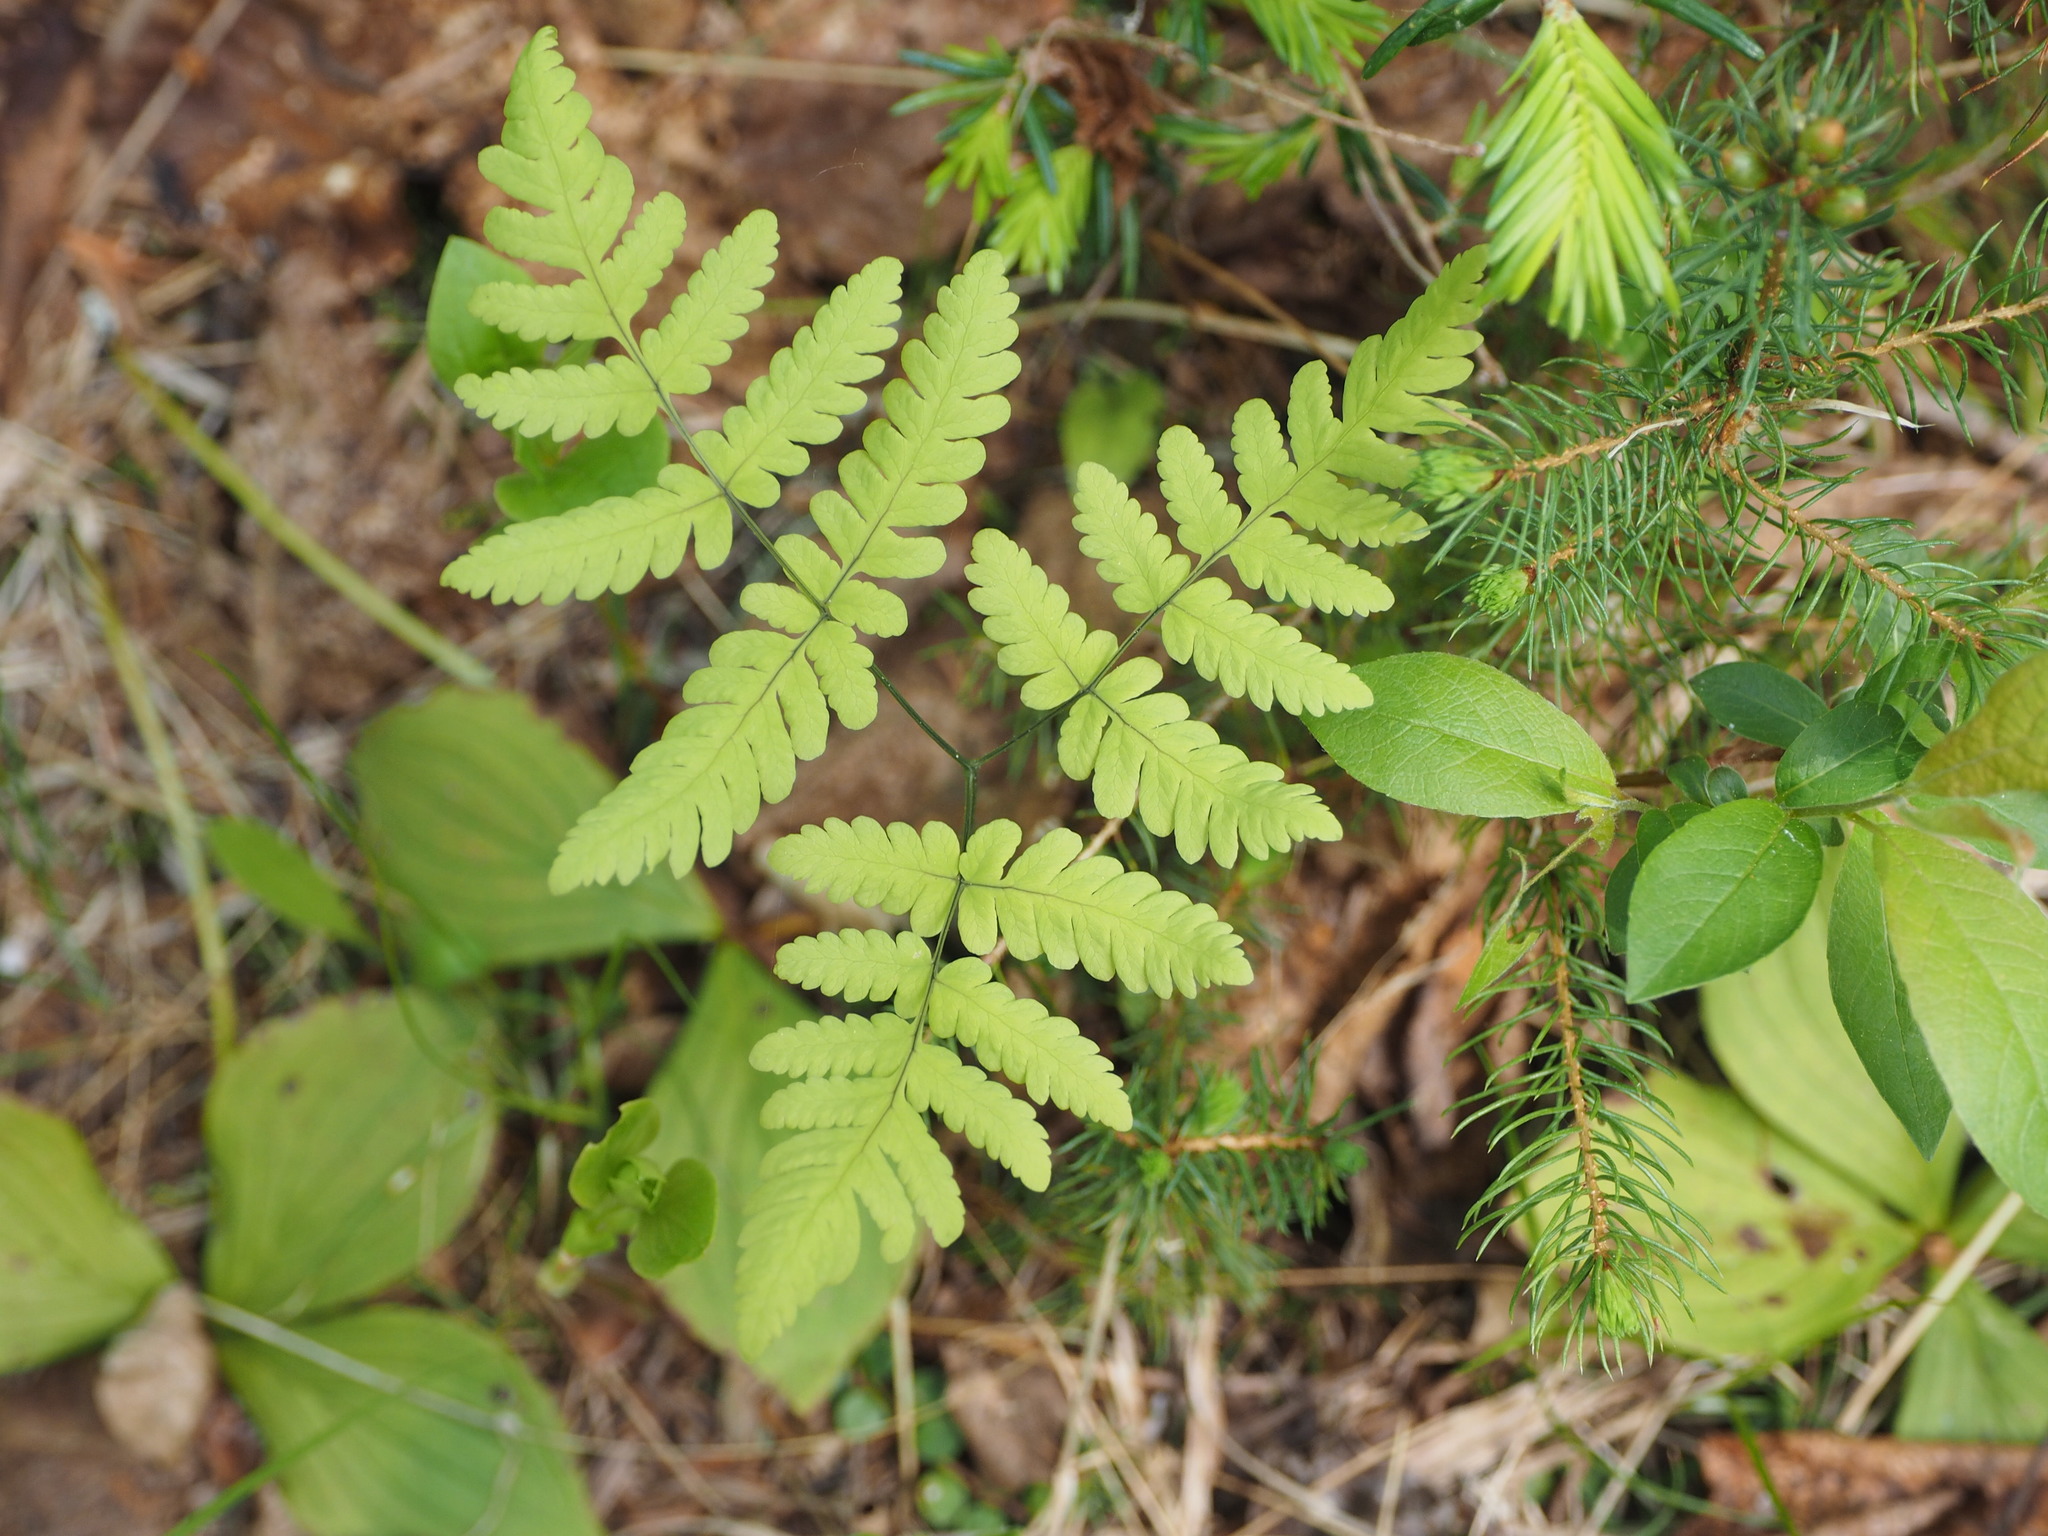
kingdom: Plantae
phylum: Tracheophyta
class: Polypodiopsida
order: Polypodiales
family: Cystopteridaceae
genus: Gymnocarpium
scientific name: Gymnocarpium dryopteris
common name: Oak fern
